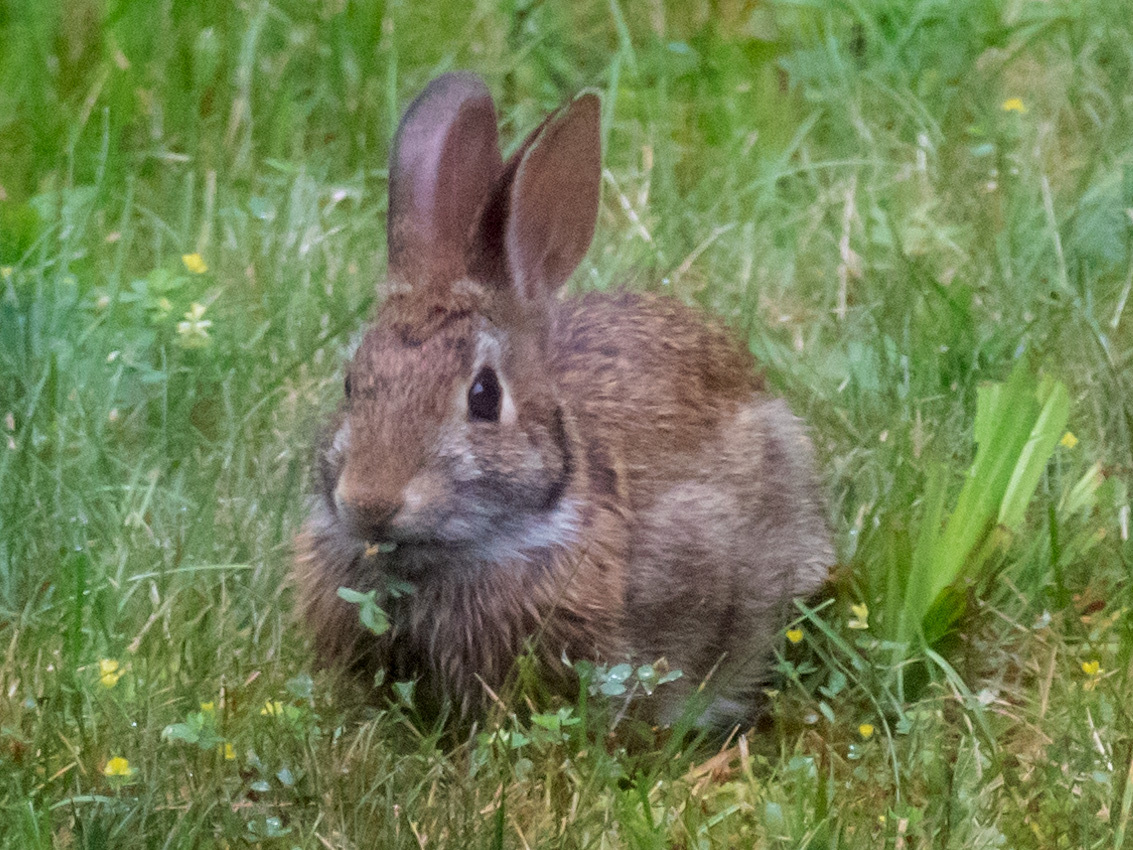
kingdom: Animalia
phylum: Chordata
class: Mammalia
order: Lagomorpha
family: Leporidae
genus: Sylvilagus
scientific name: Sylvilagus floridanus
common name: Eastern cottontail
